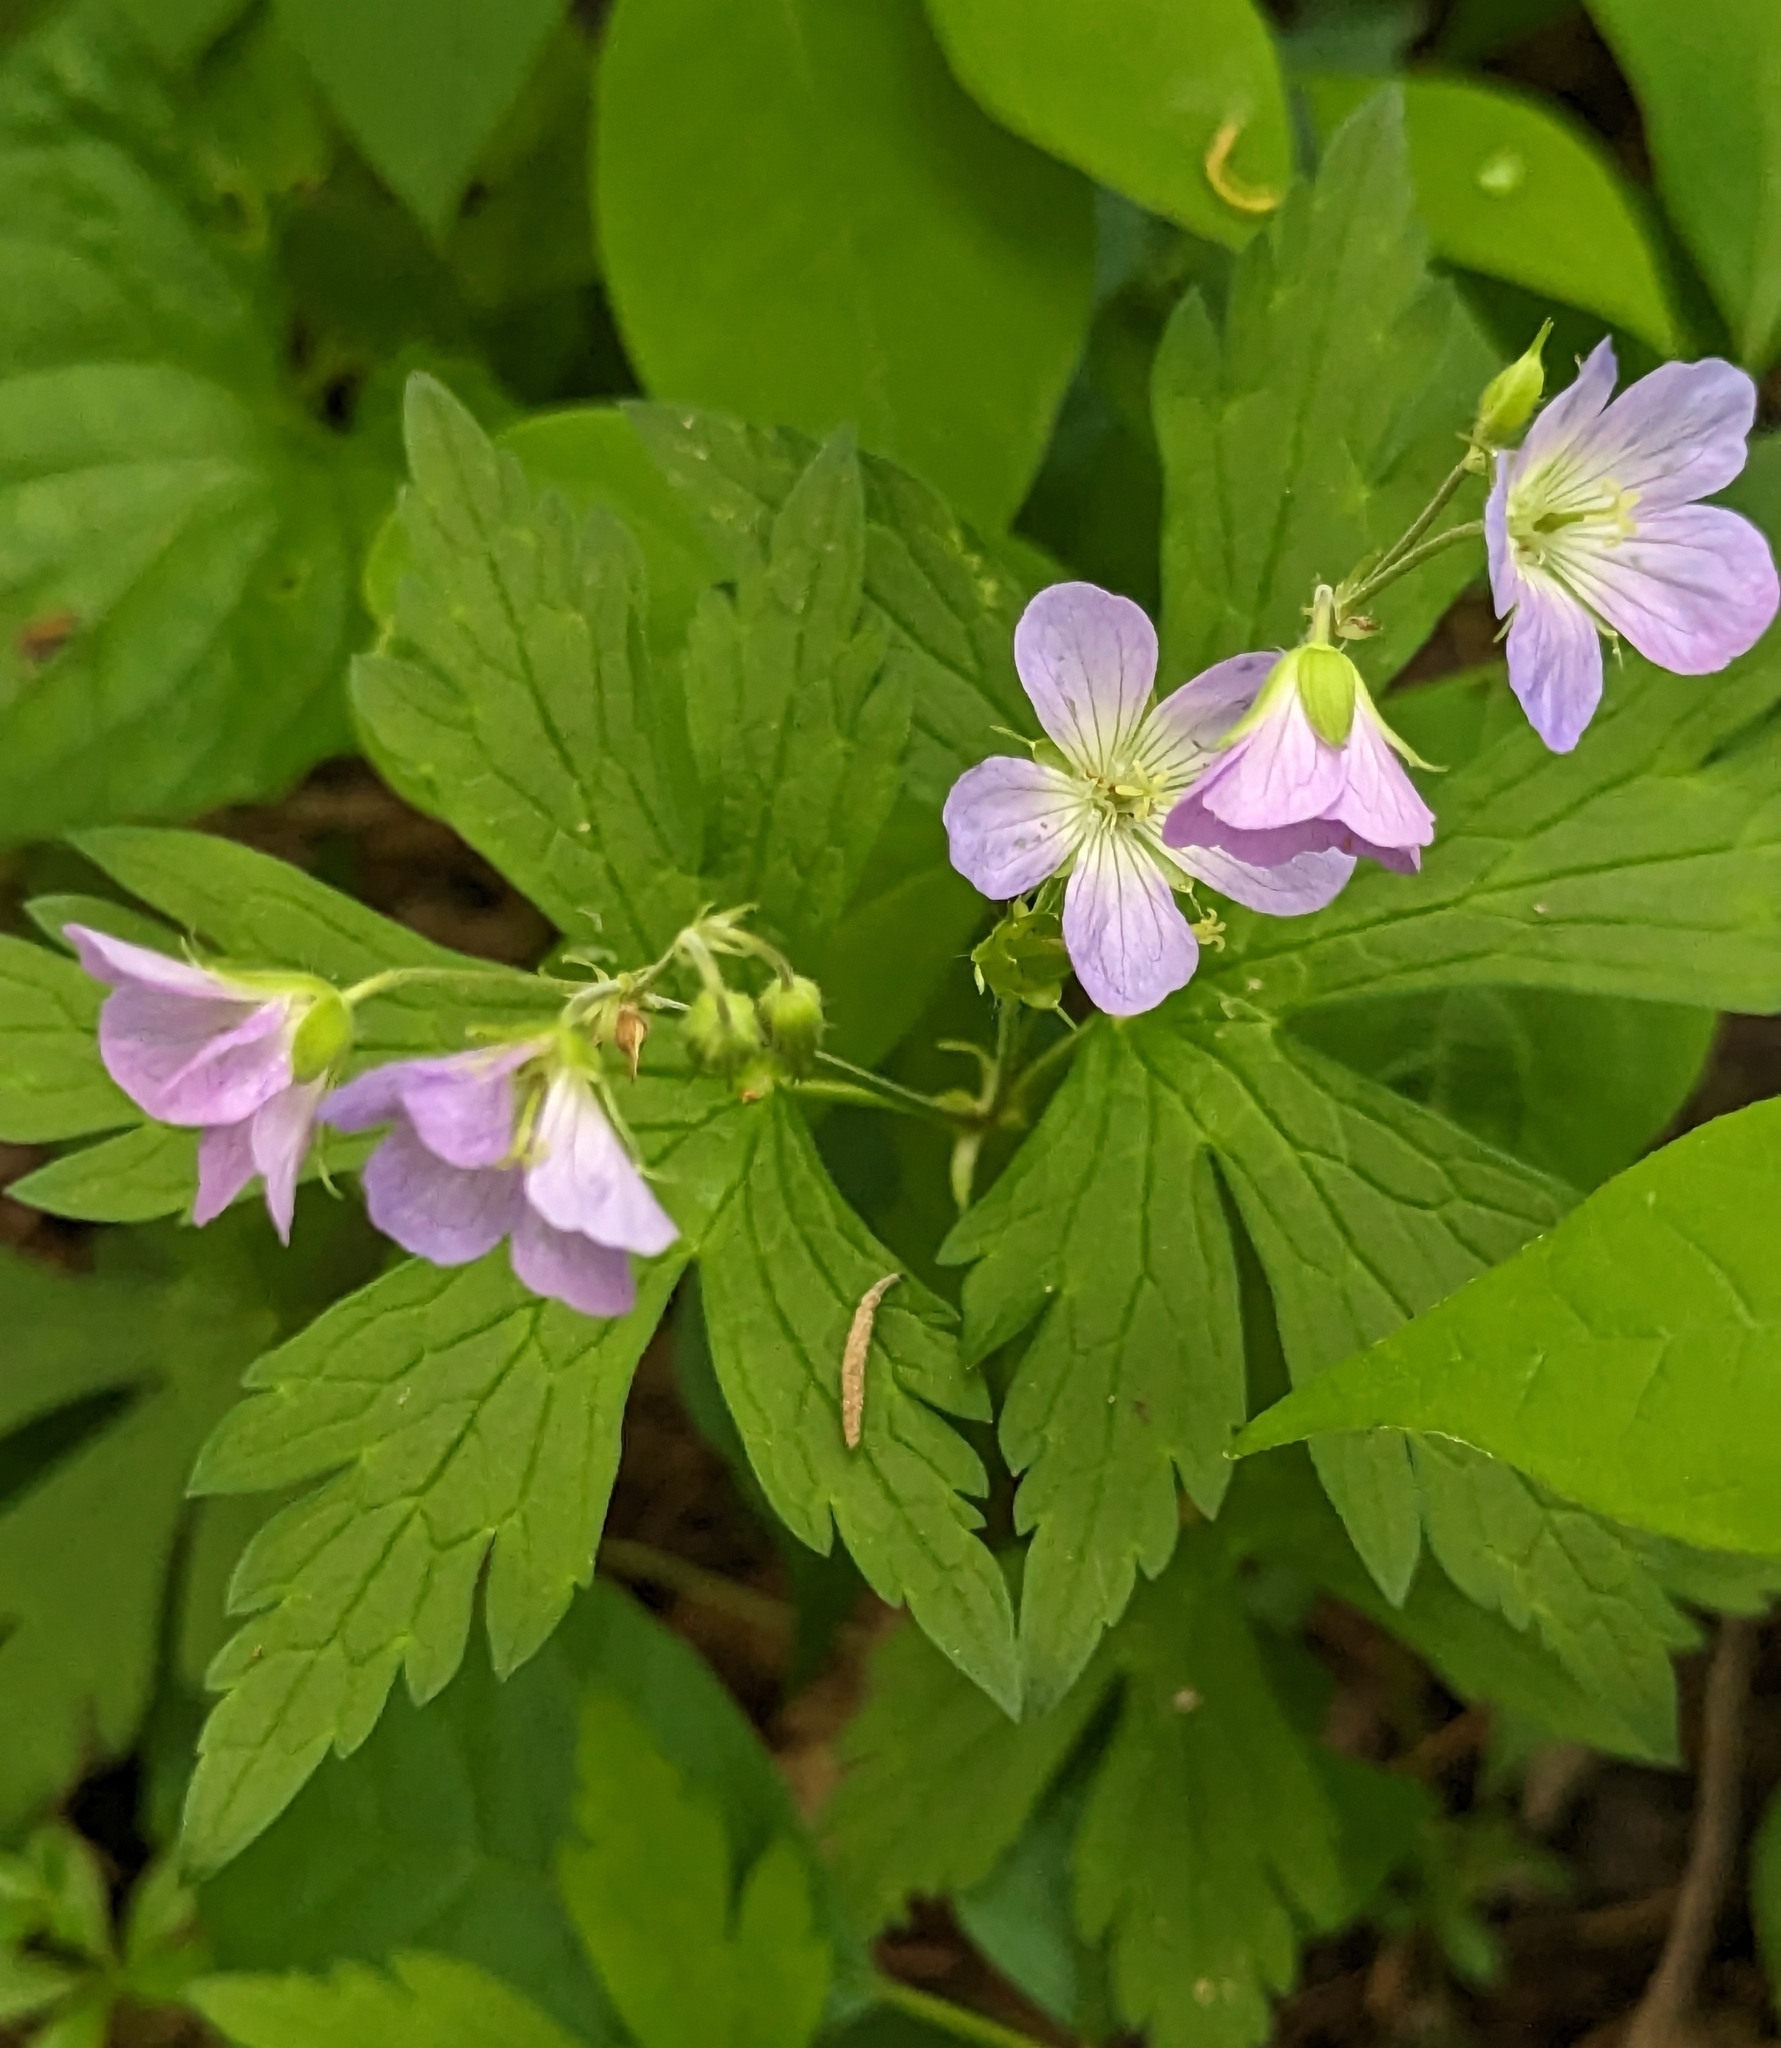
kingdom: Plantae
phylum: Tracheophyta
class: Magnoliopsida
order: Geraniales
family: Geraniaceae
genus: Geranium
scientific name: Geranium maculatum
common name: Spotted geranium
